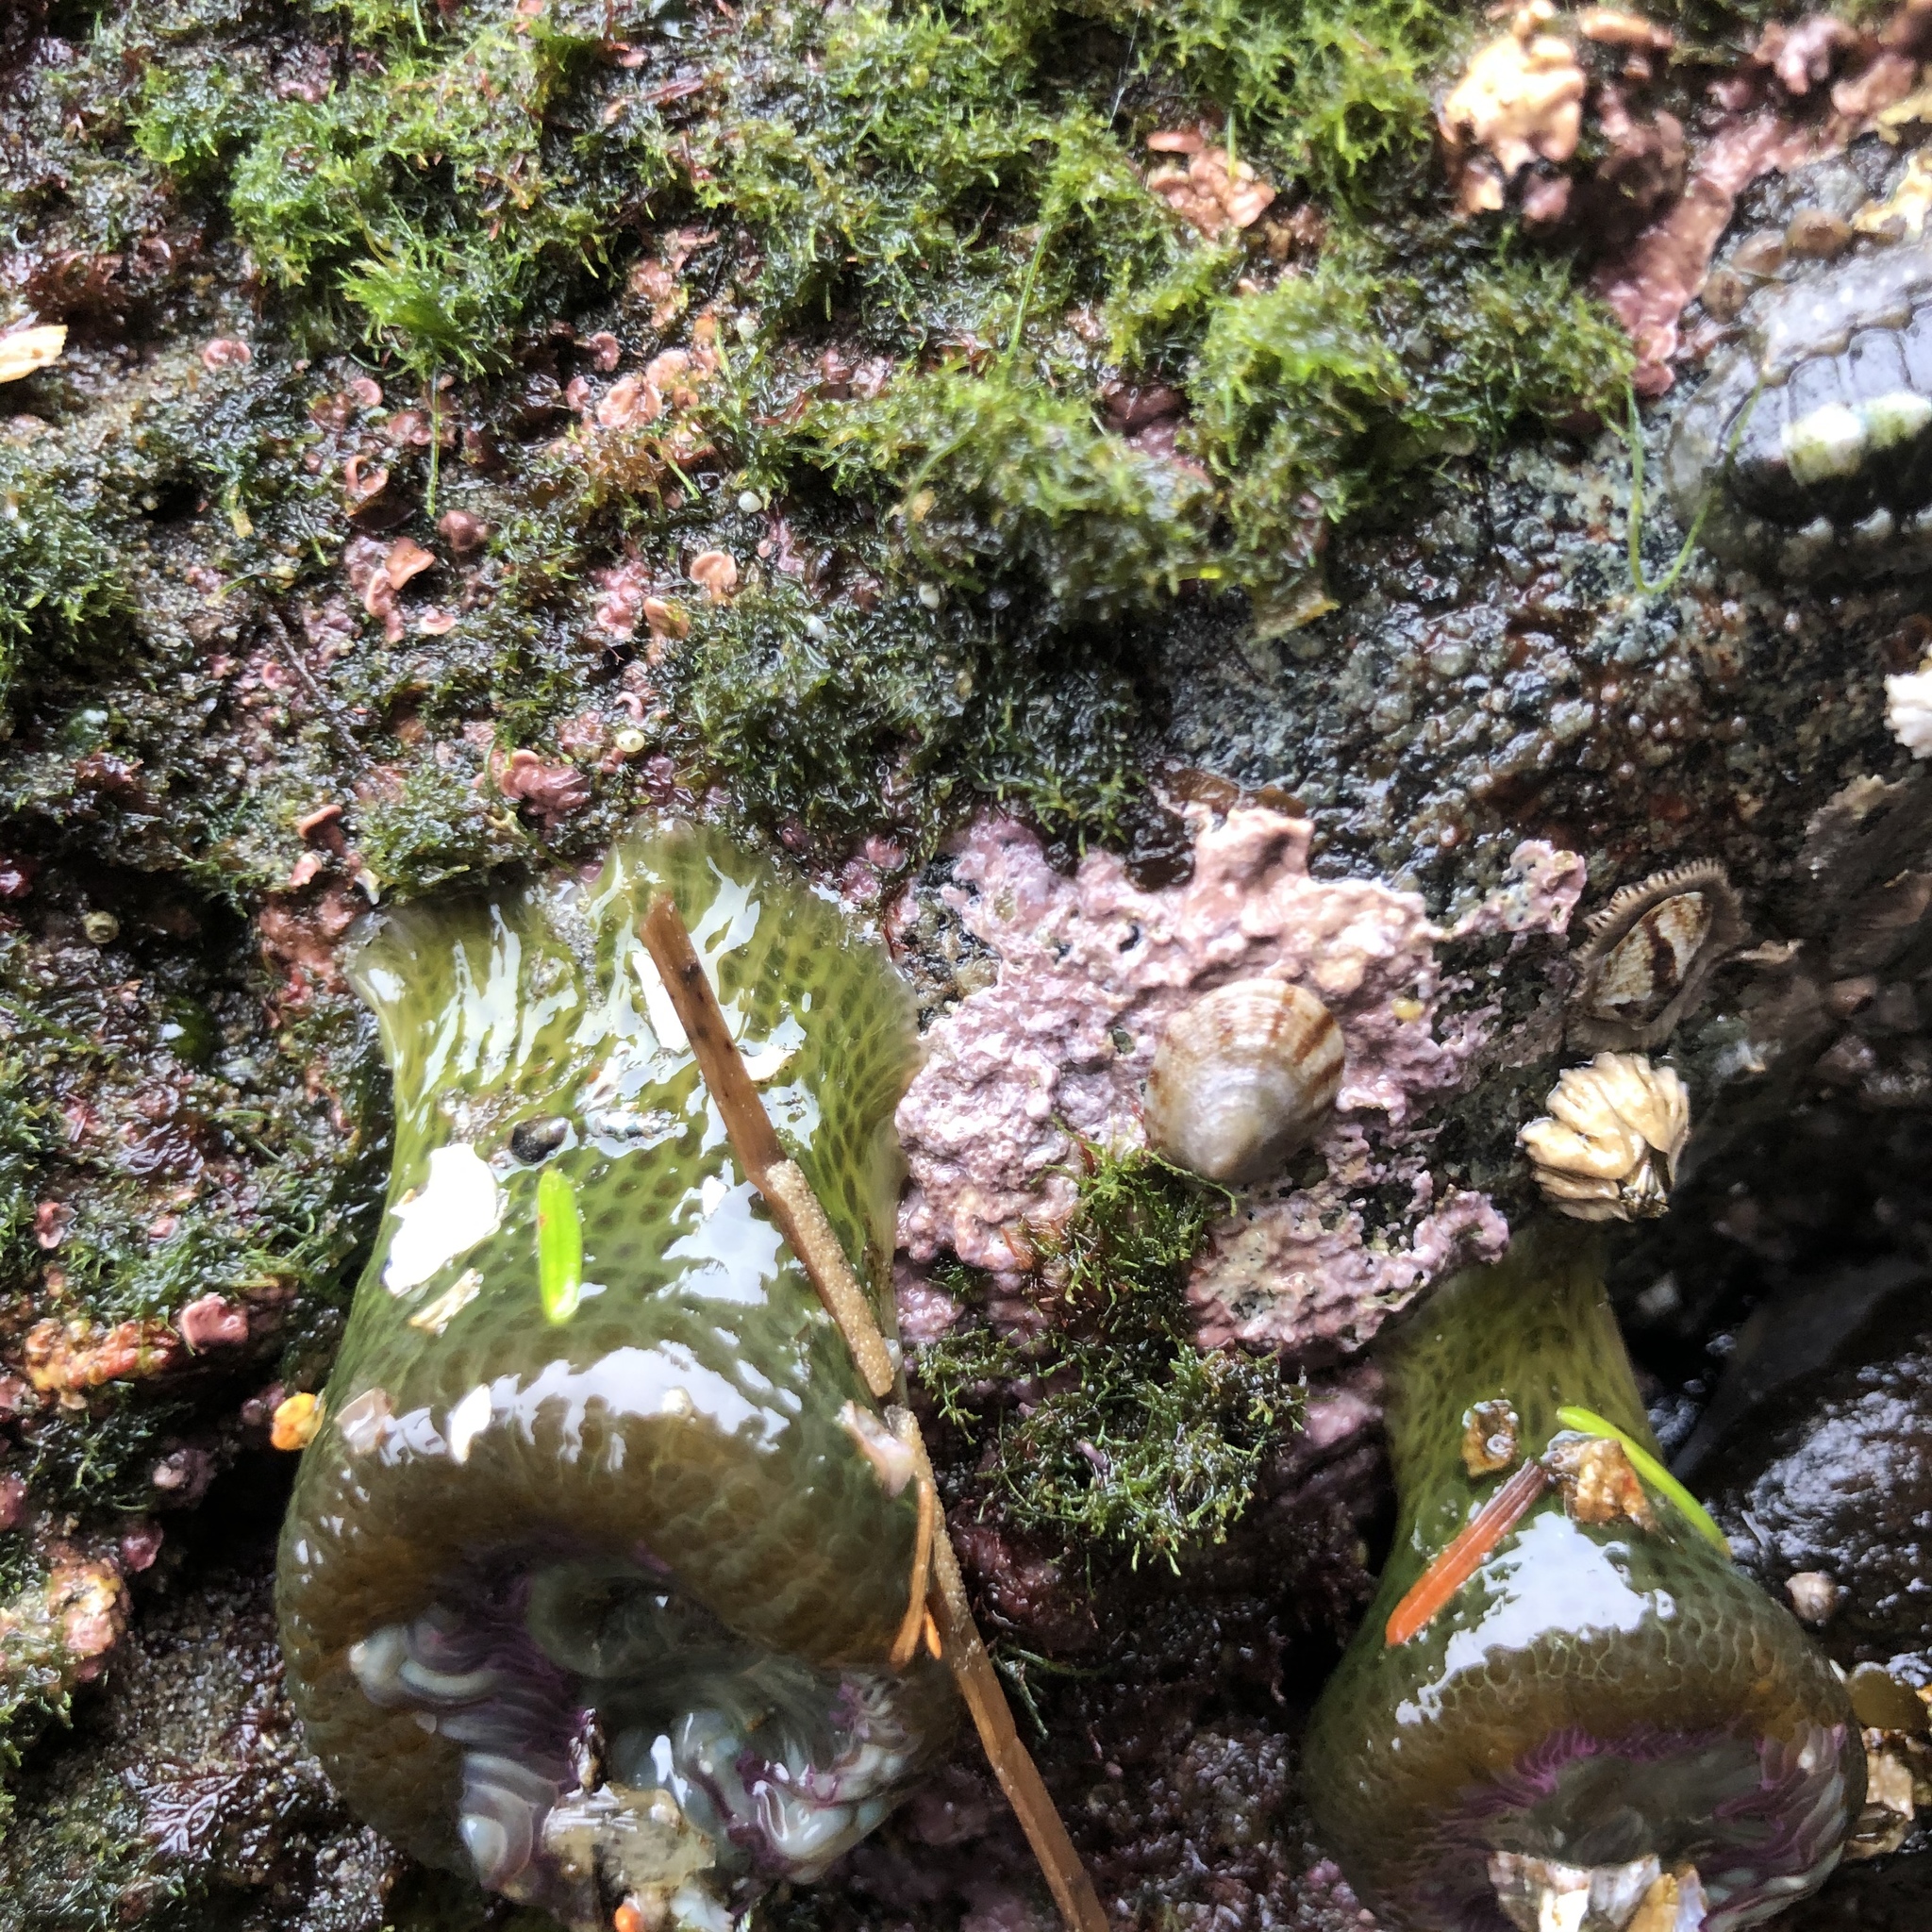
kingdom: Plantae
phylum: Rhodophyta
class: Florideophyceae
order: Corallinales
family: Corallinaceae
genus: Chamberlainium
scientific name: Chamberlainium tumidum
